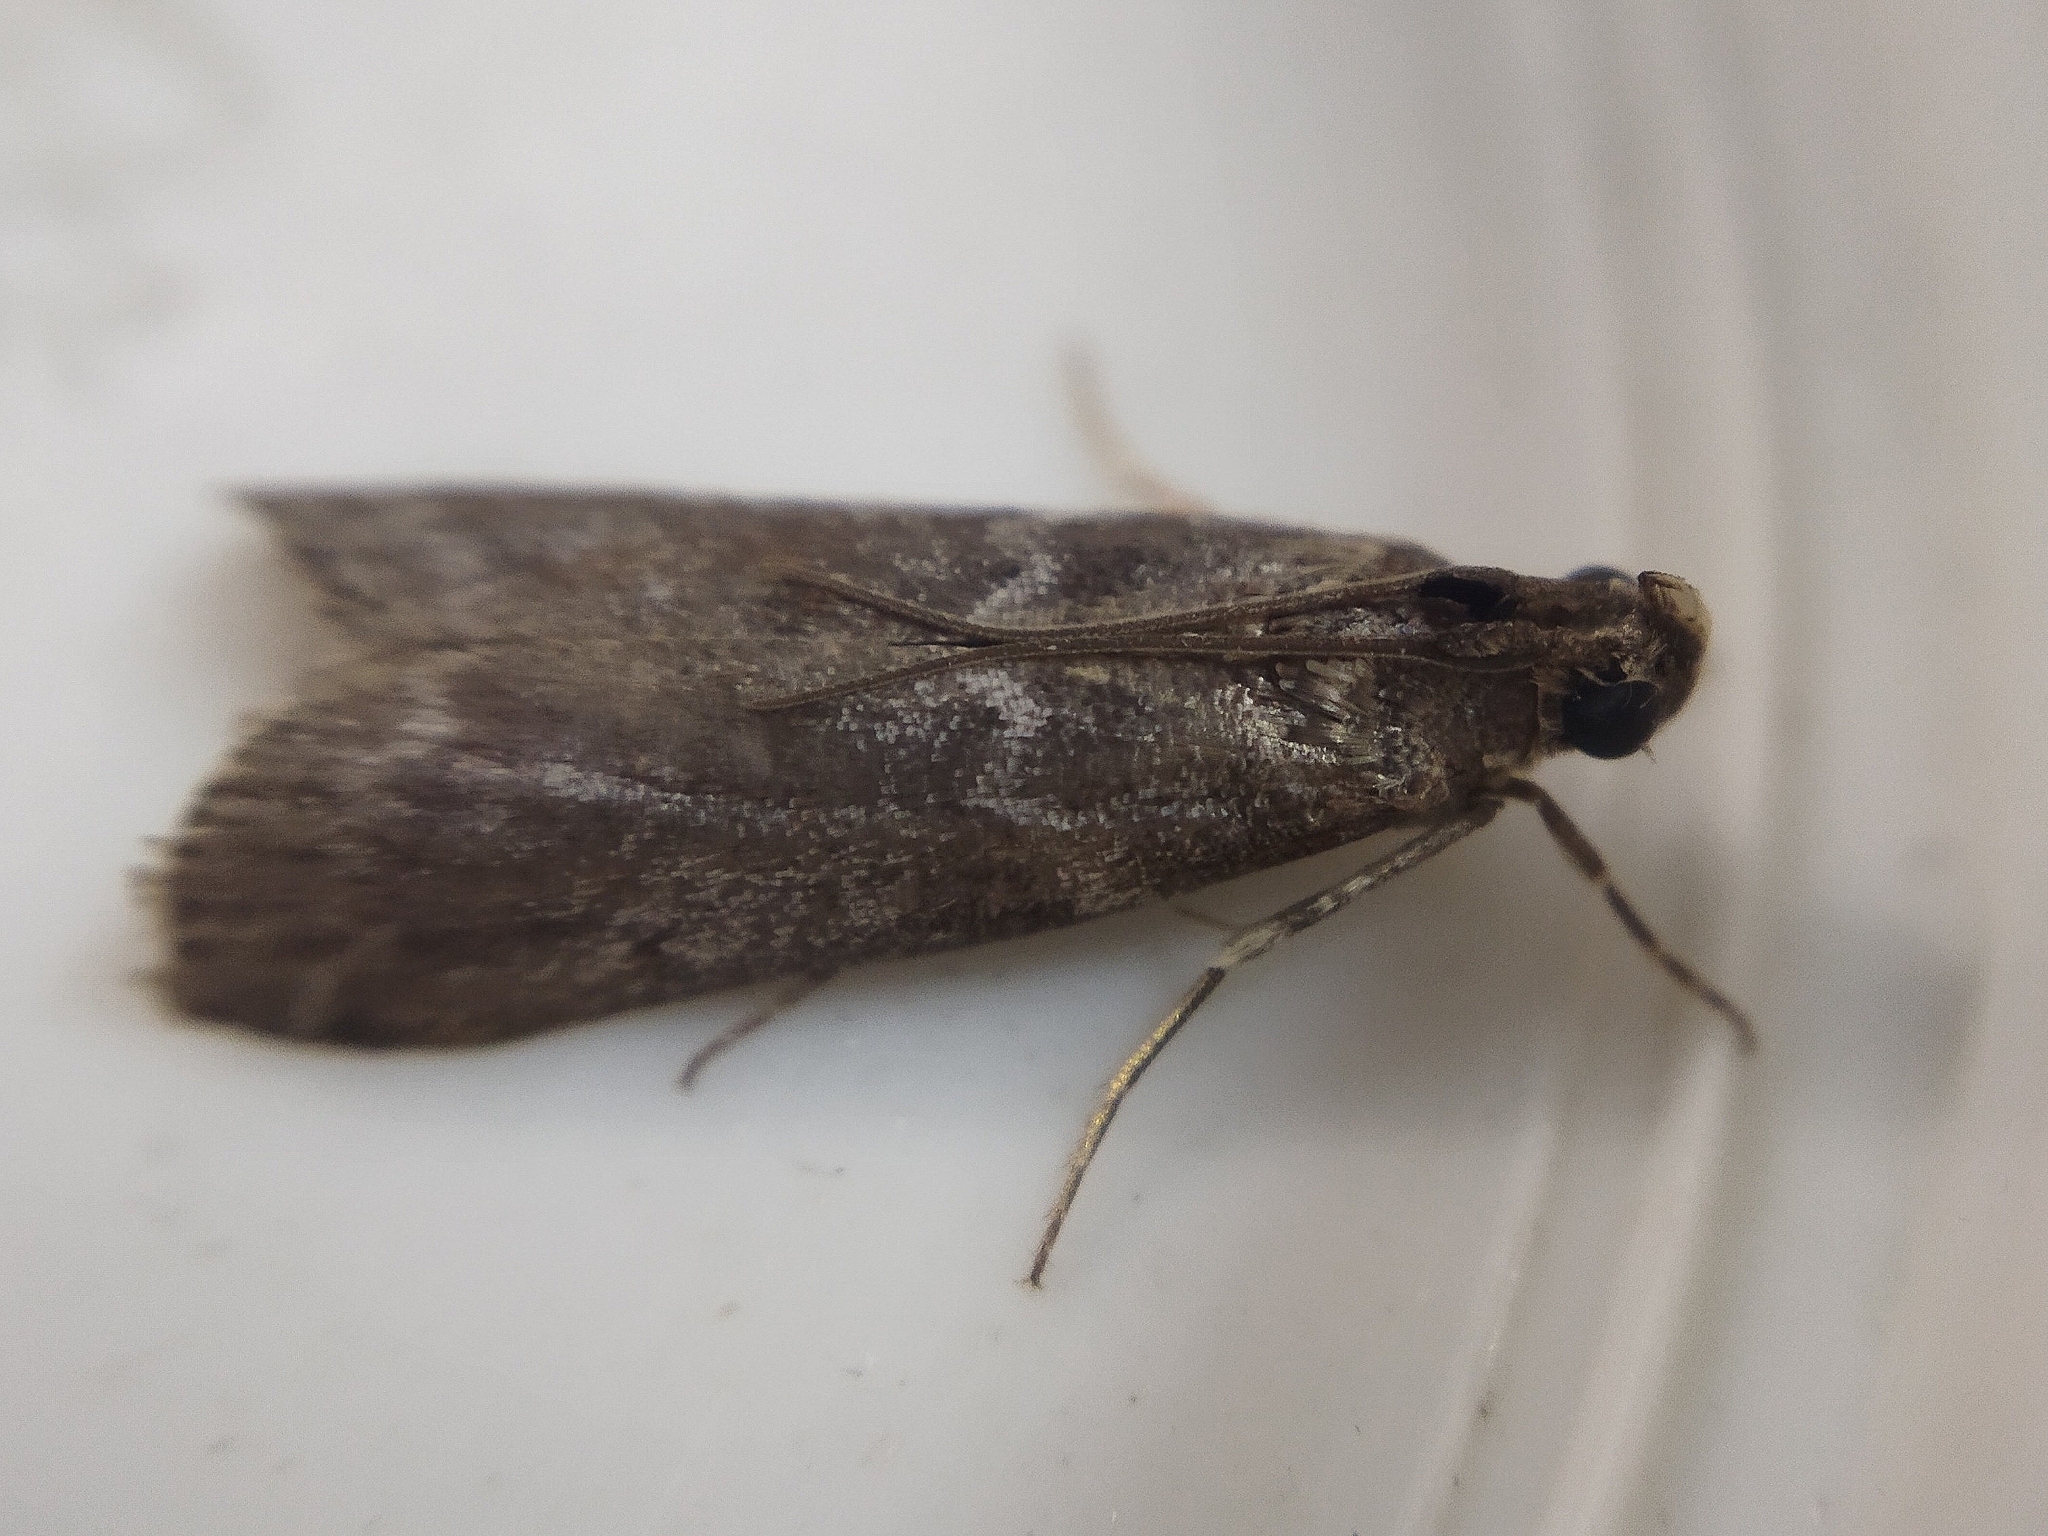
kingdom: Animalia
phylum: Arthropoda
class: Insecta
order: Lepidoptera
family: Pyralidae
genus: Oncocera
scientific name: Oncocera Laodamia faecella
